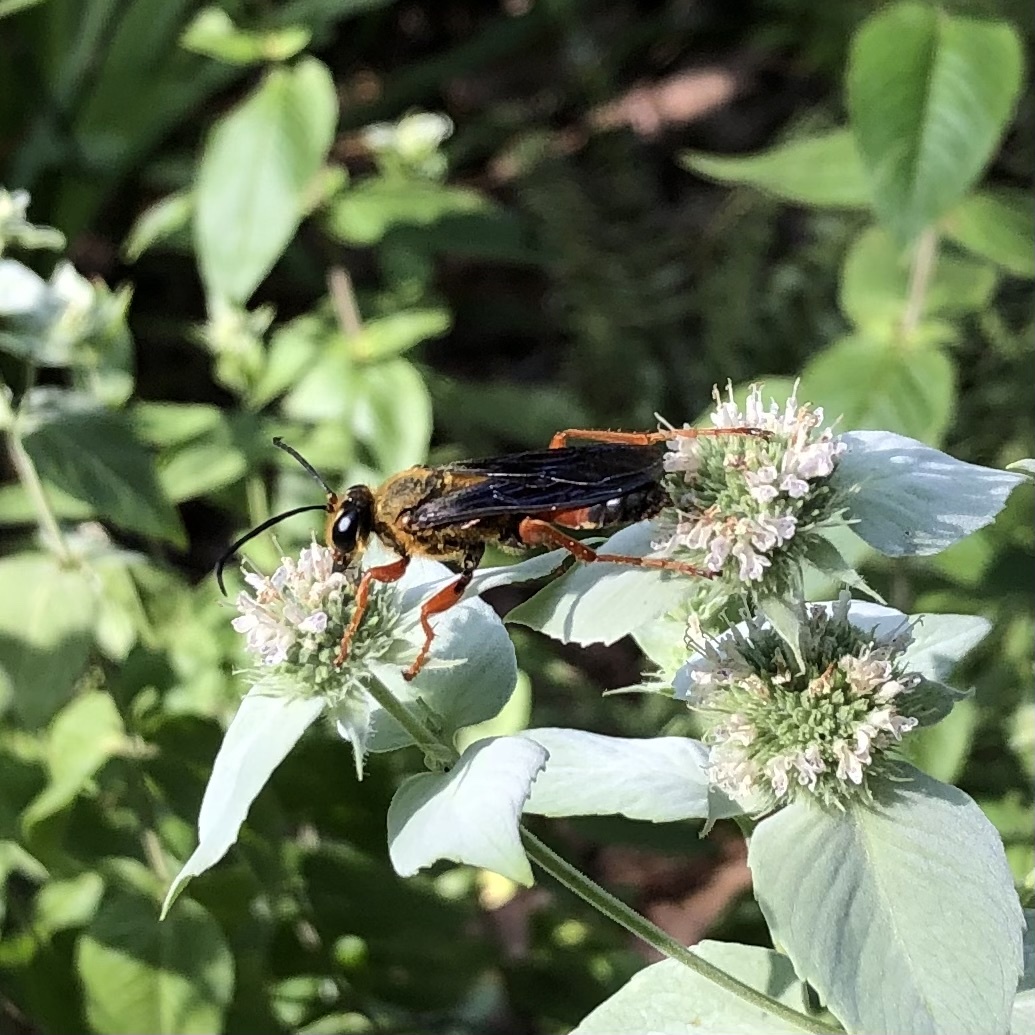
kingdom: Animalia
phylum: Arthropoda
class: Insecta
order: Hymenoptera
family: Sphecidae
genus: Sphex
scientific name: Sphex ichneumoneus
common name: Great golden digger wasp
